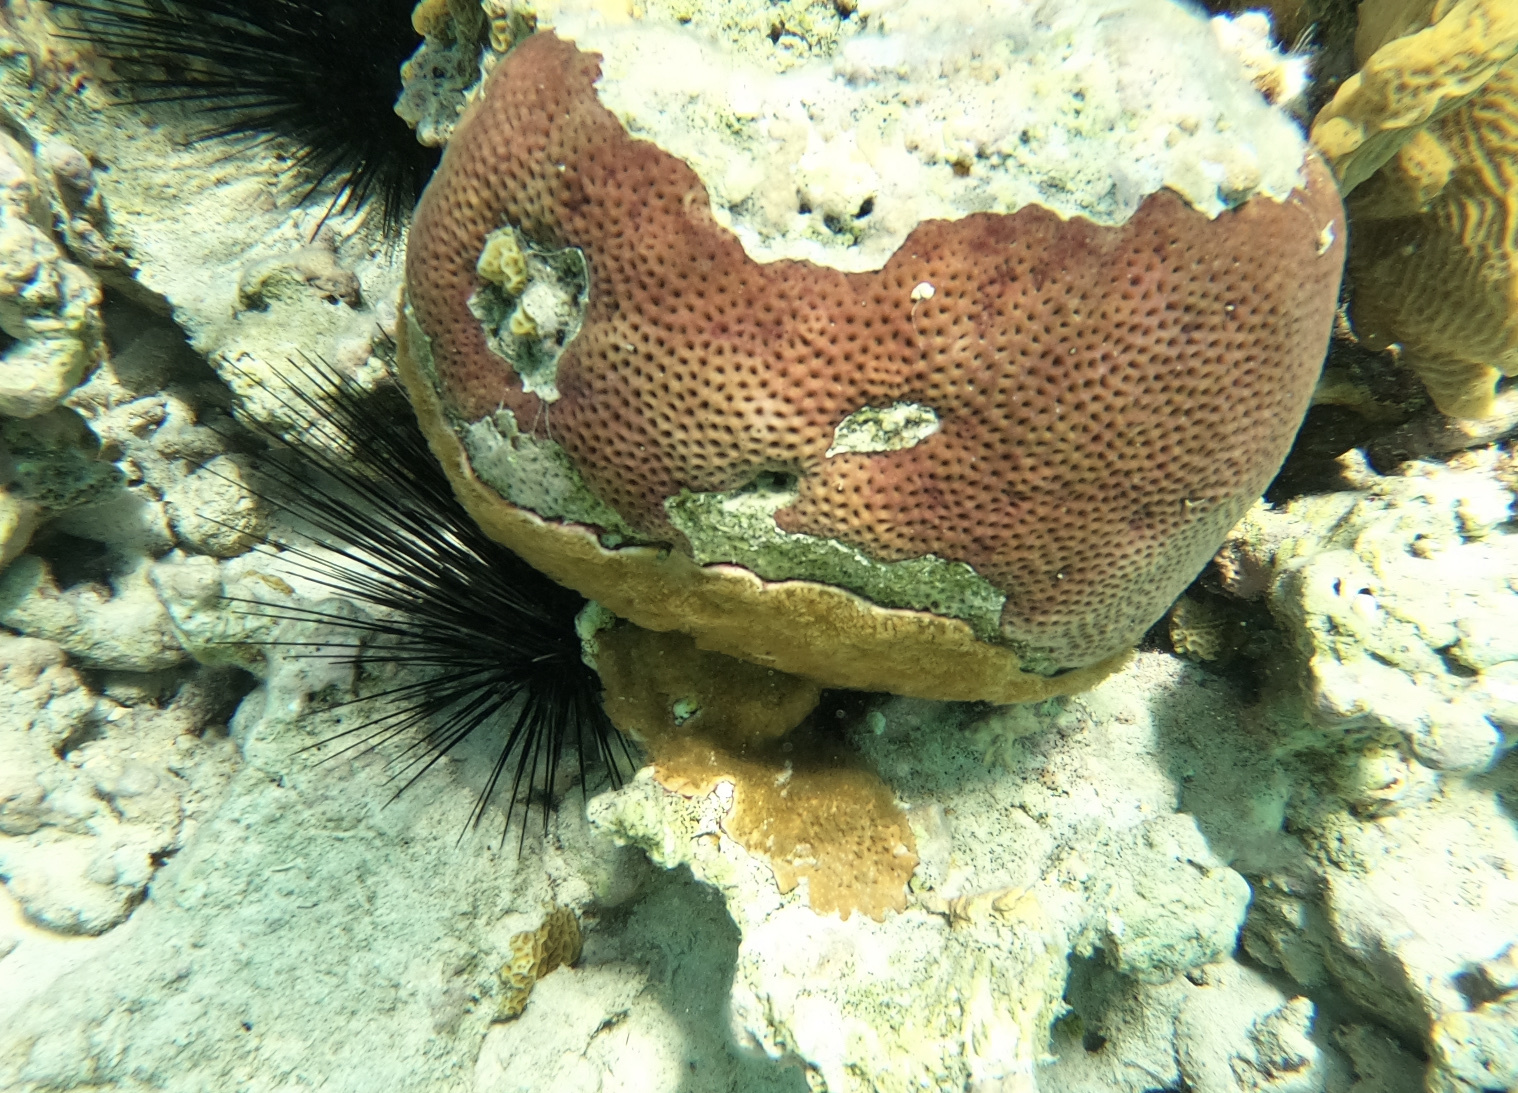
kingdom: Animalia
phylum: Cnidaria
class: Anthozoa
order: Scleractinia
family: Rhizangiidae
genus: Siderastrea
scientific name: Siderastrea siderea
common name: Massive starlet coral
